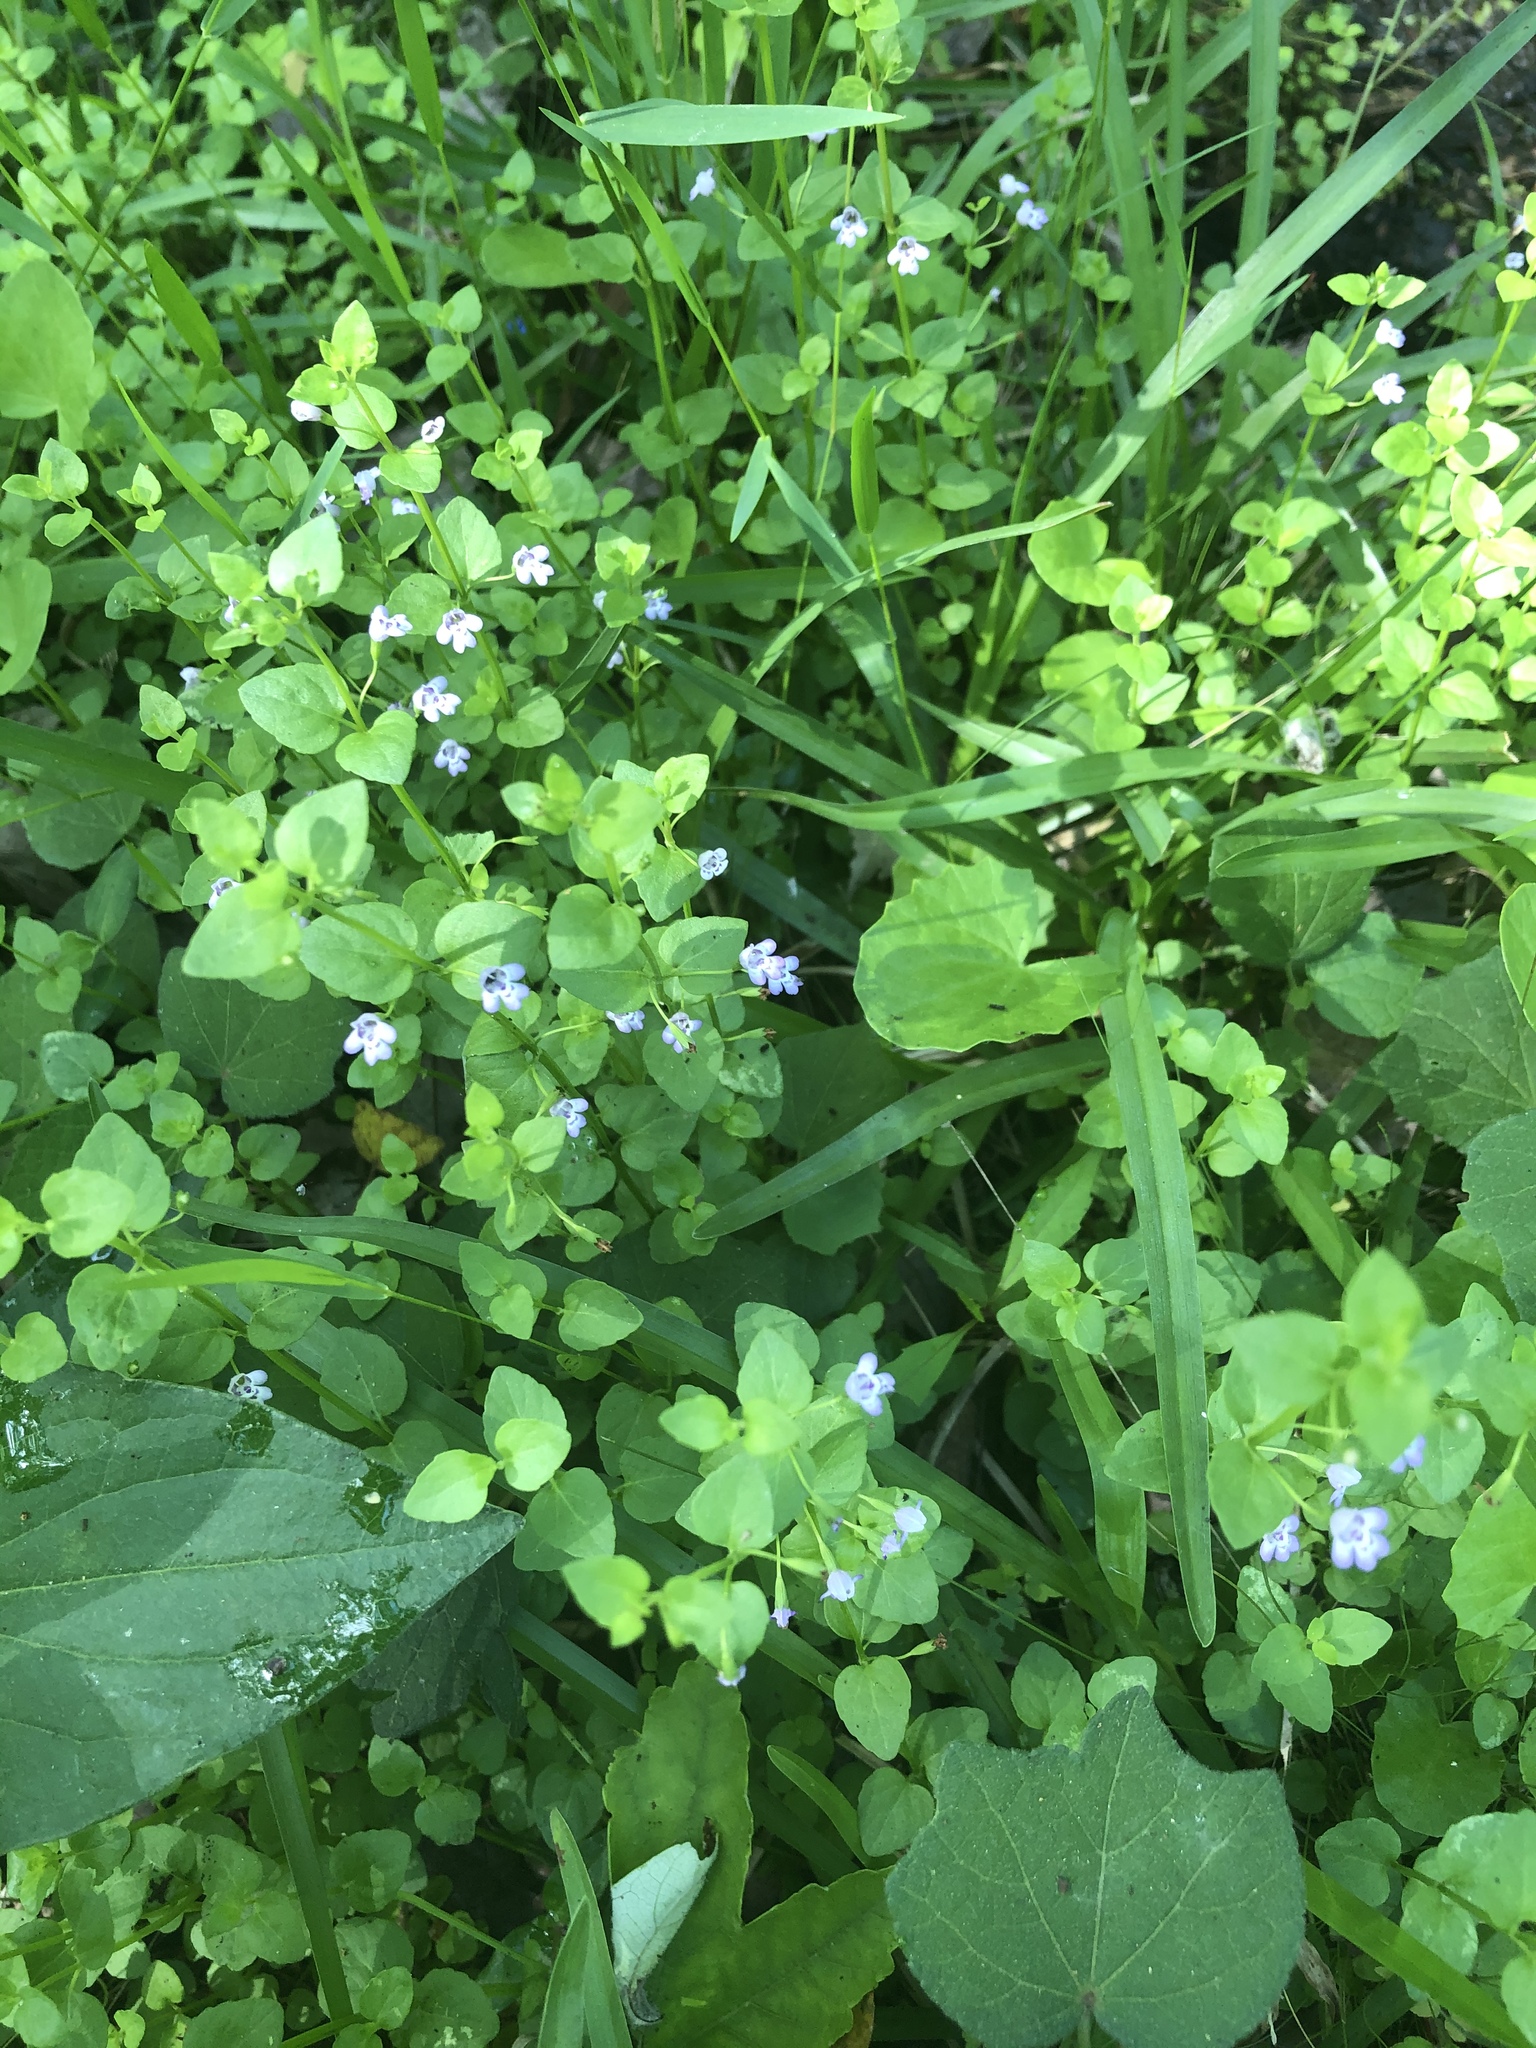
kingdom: Plantae
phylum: Tracheophyta
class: Magnoliopsida
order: Lamiales
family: Lamiaceae
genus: Clinopodium
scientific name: Clinopodium brownei
